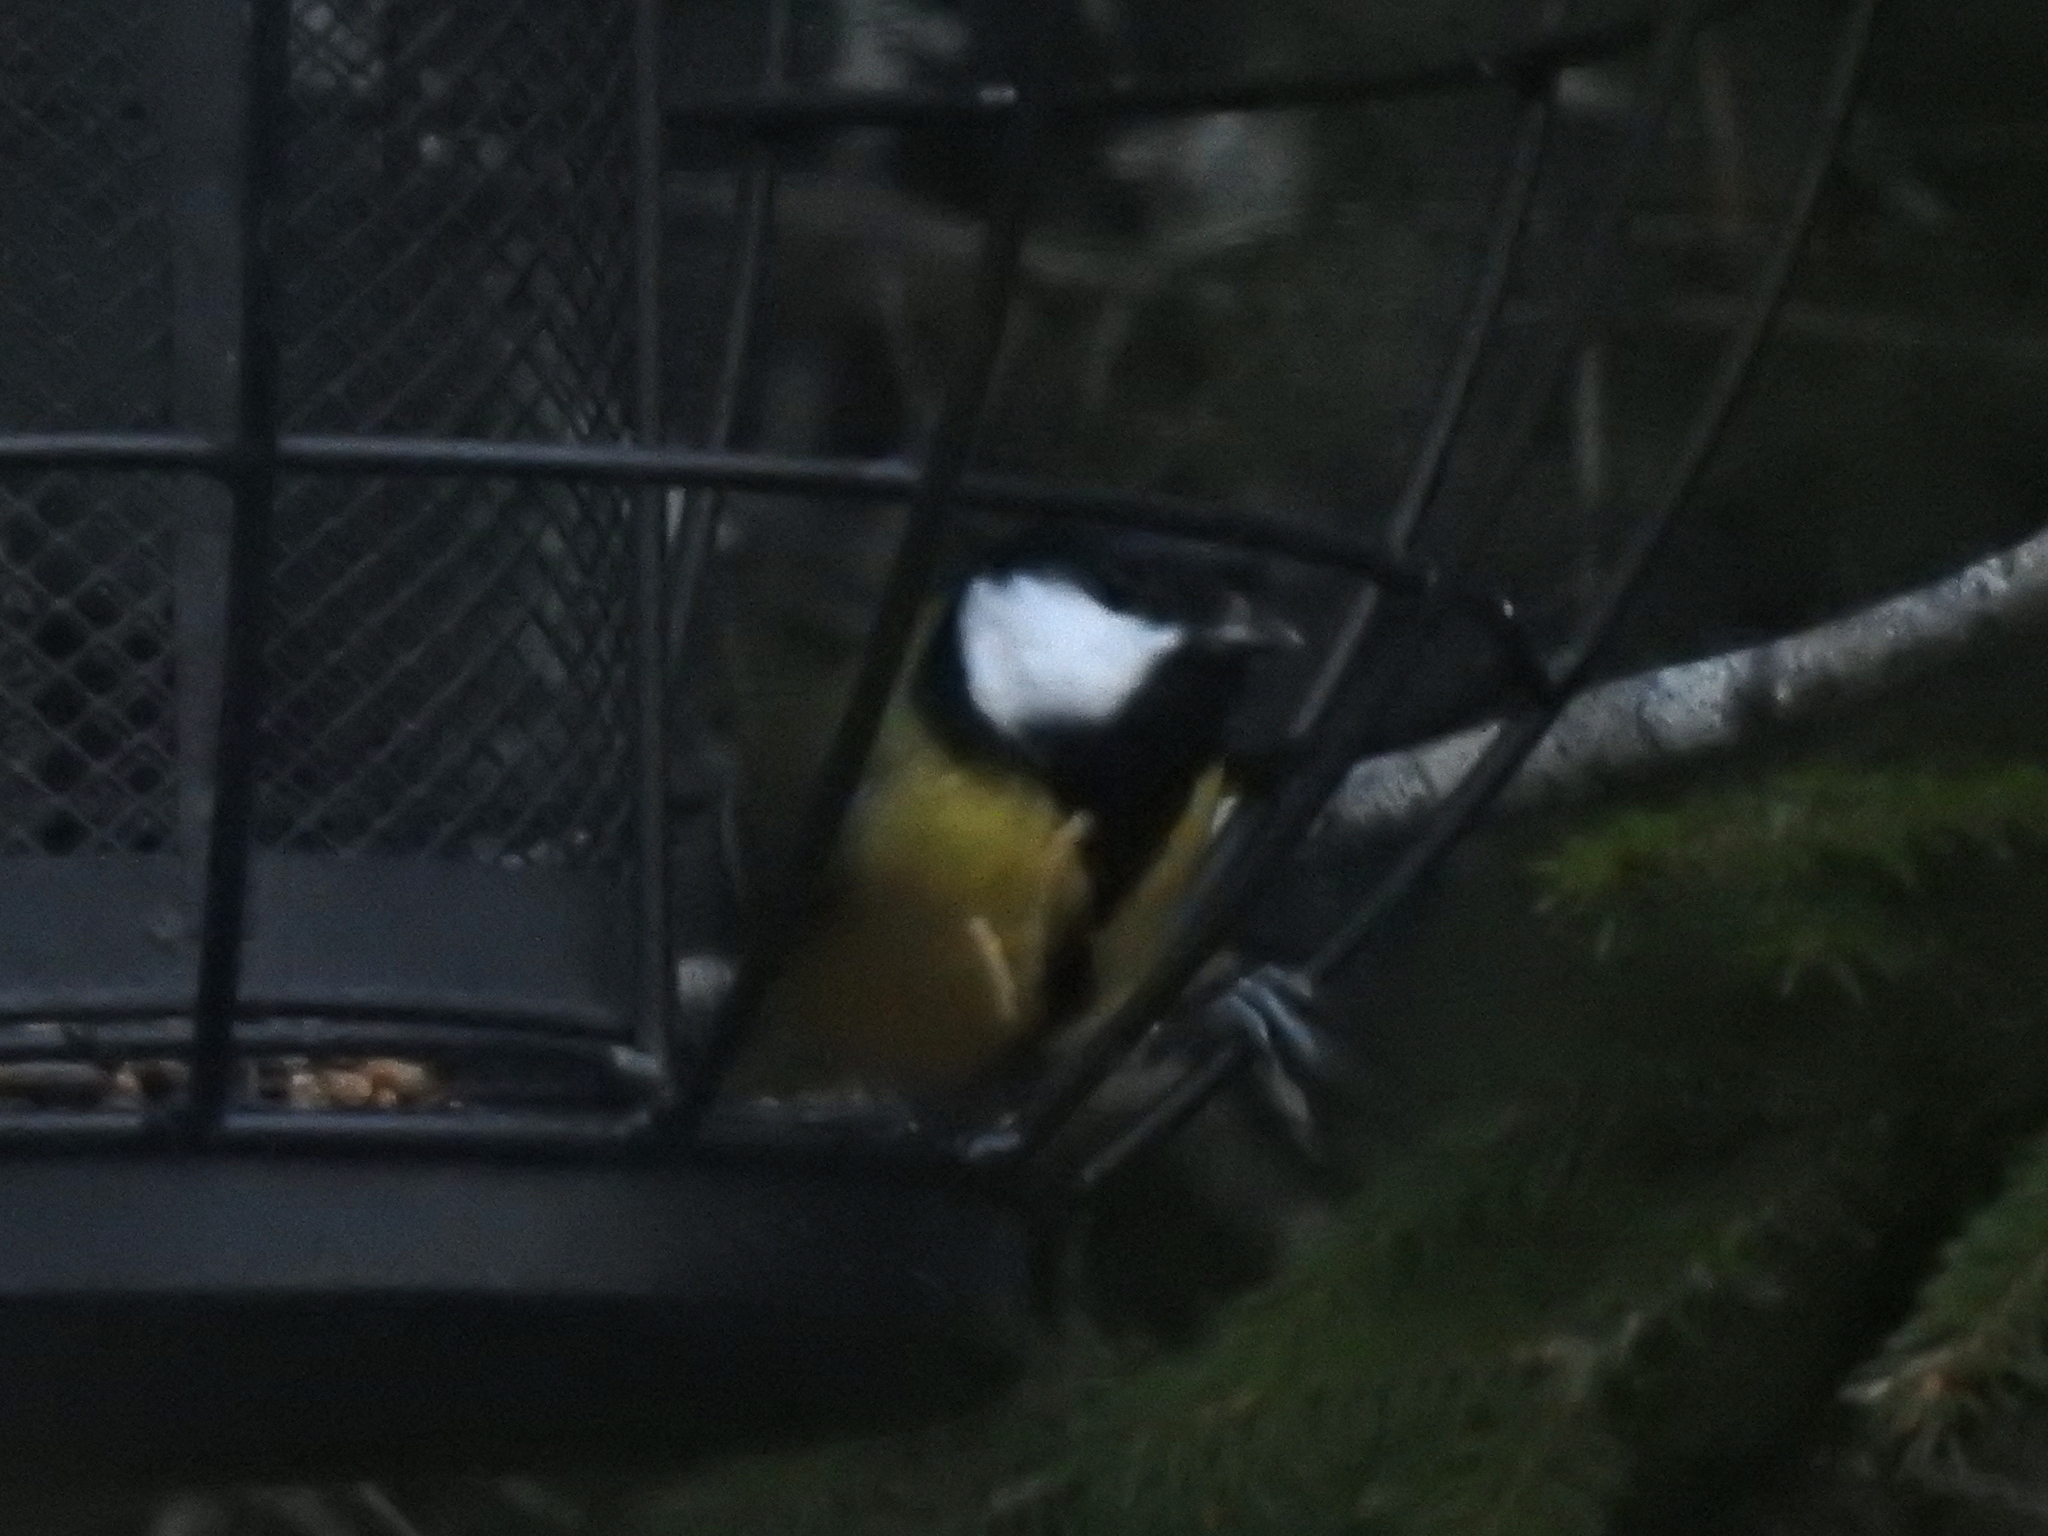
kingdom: Animalia
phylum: Chordata
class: Aves
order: Passeriformes
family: Paridae
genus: Parus
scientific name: Parus major
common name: Great tit
